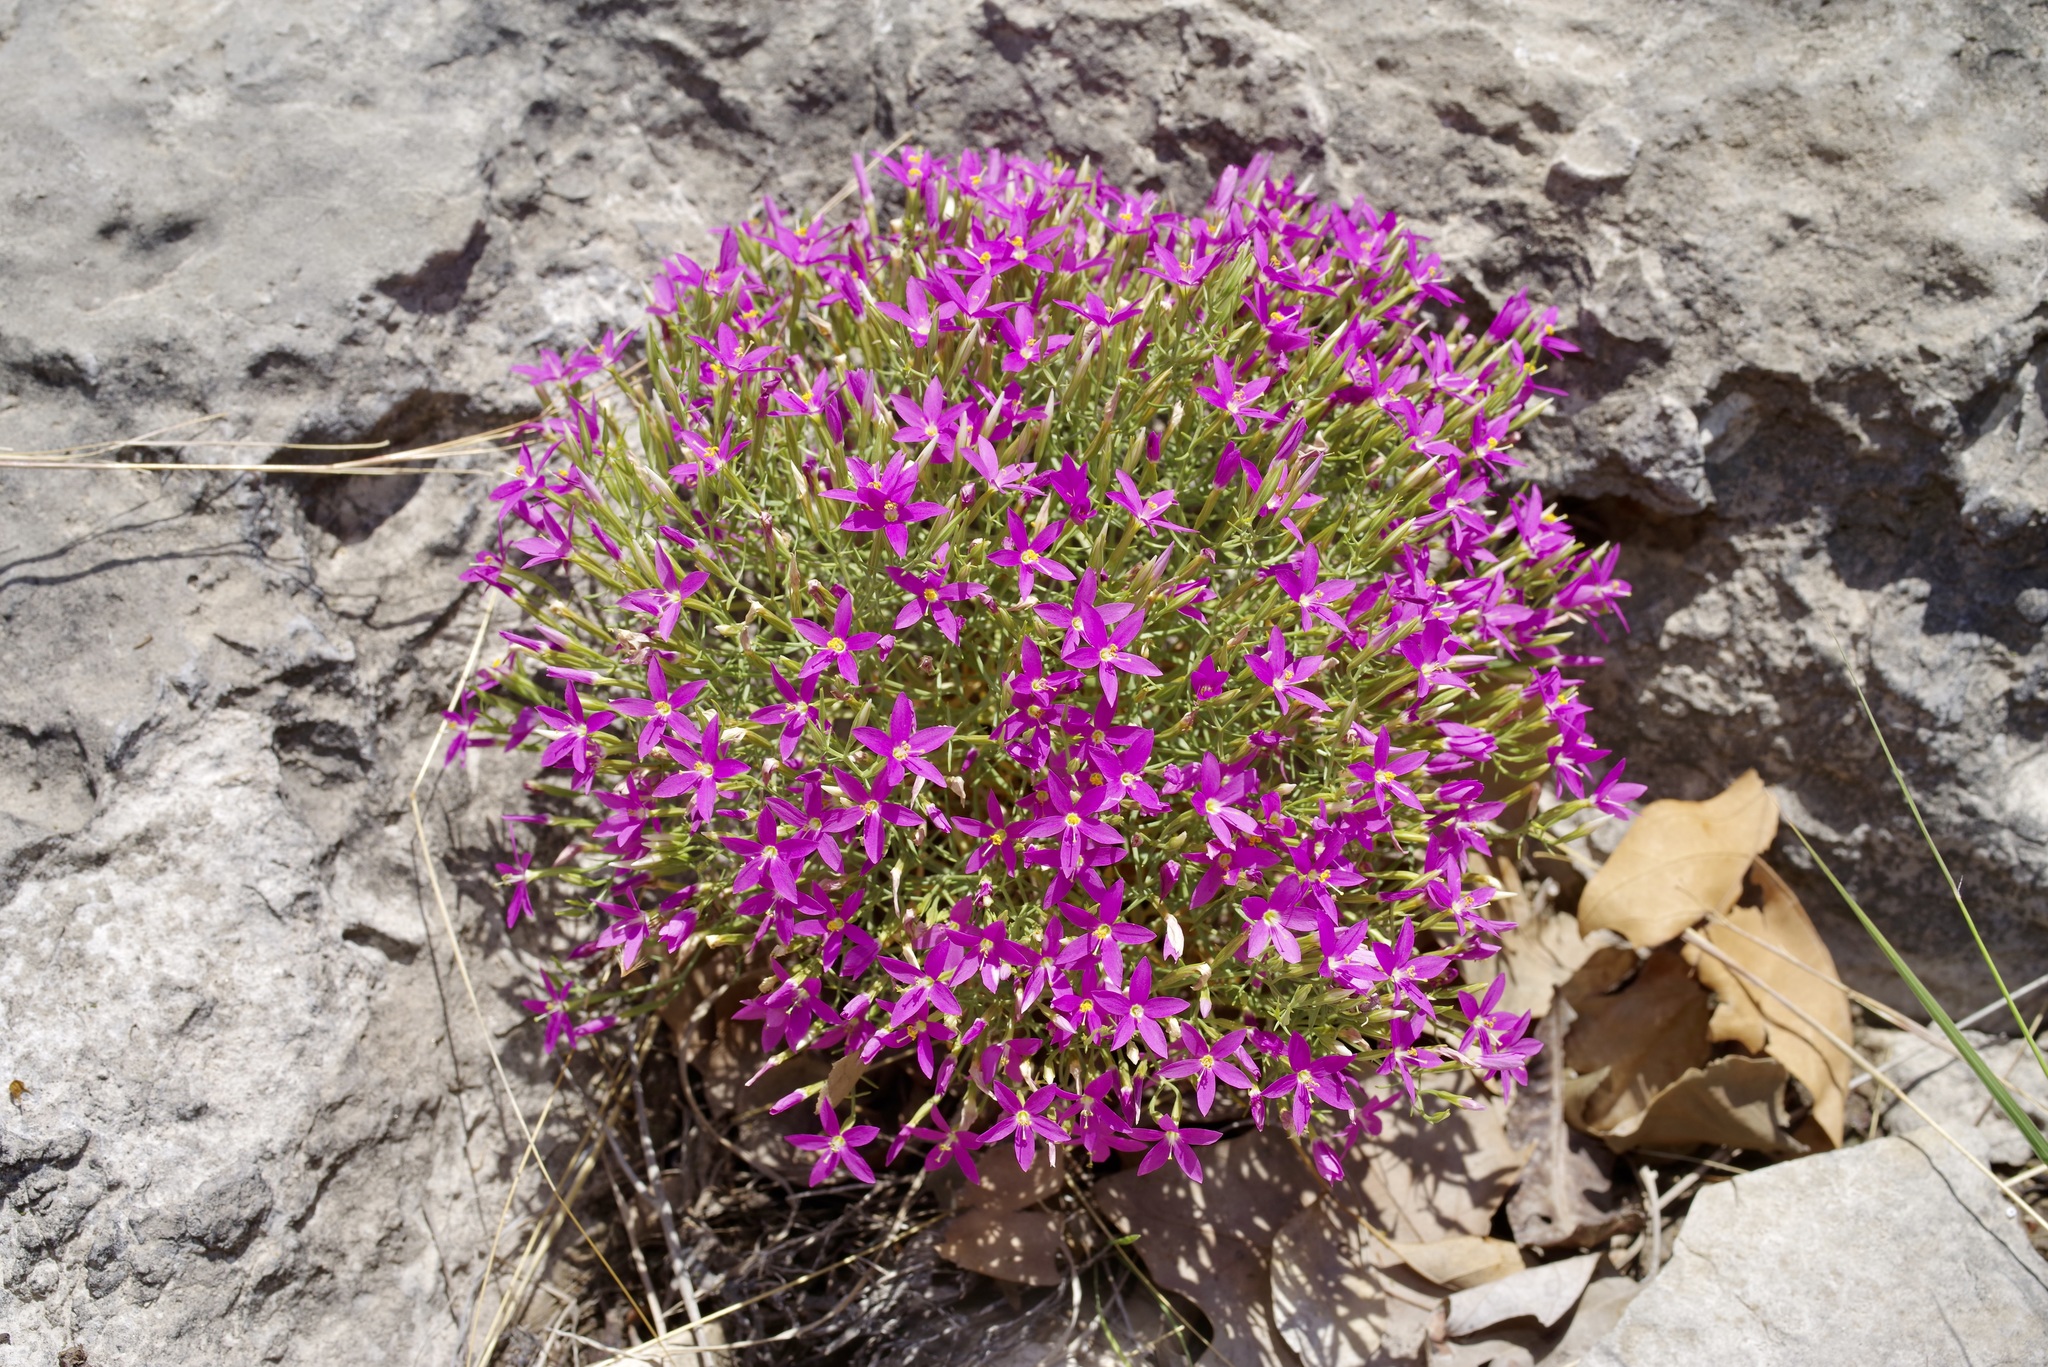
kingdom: Plantae
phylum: Tracheophyta
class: Magnoliopsida
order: Gentianales
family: Gentianaceae
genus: Zeltnera
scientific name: Zeltnera beyrichii
